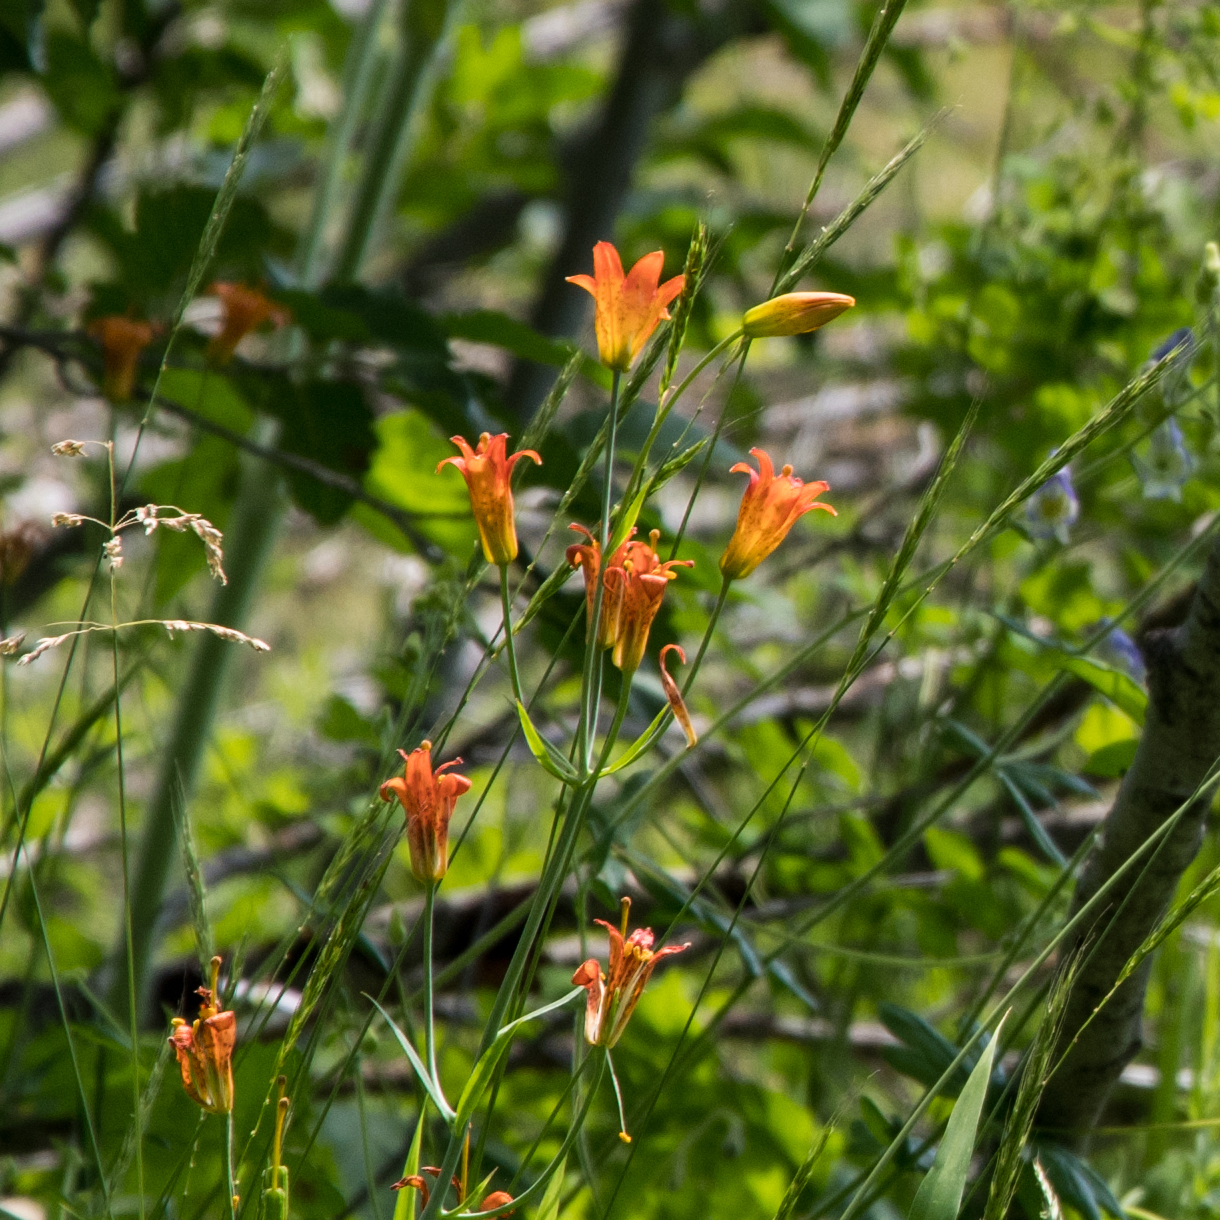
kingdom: Plantae
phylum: Tracheophyta
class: Liliopsida
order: Liliales
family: Liliaceae
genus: Lilium
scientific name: Lilium parvum
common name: Alpine lily
